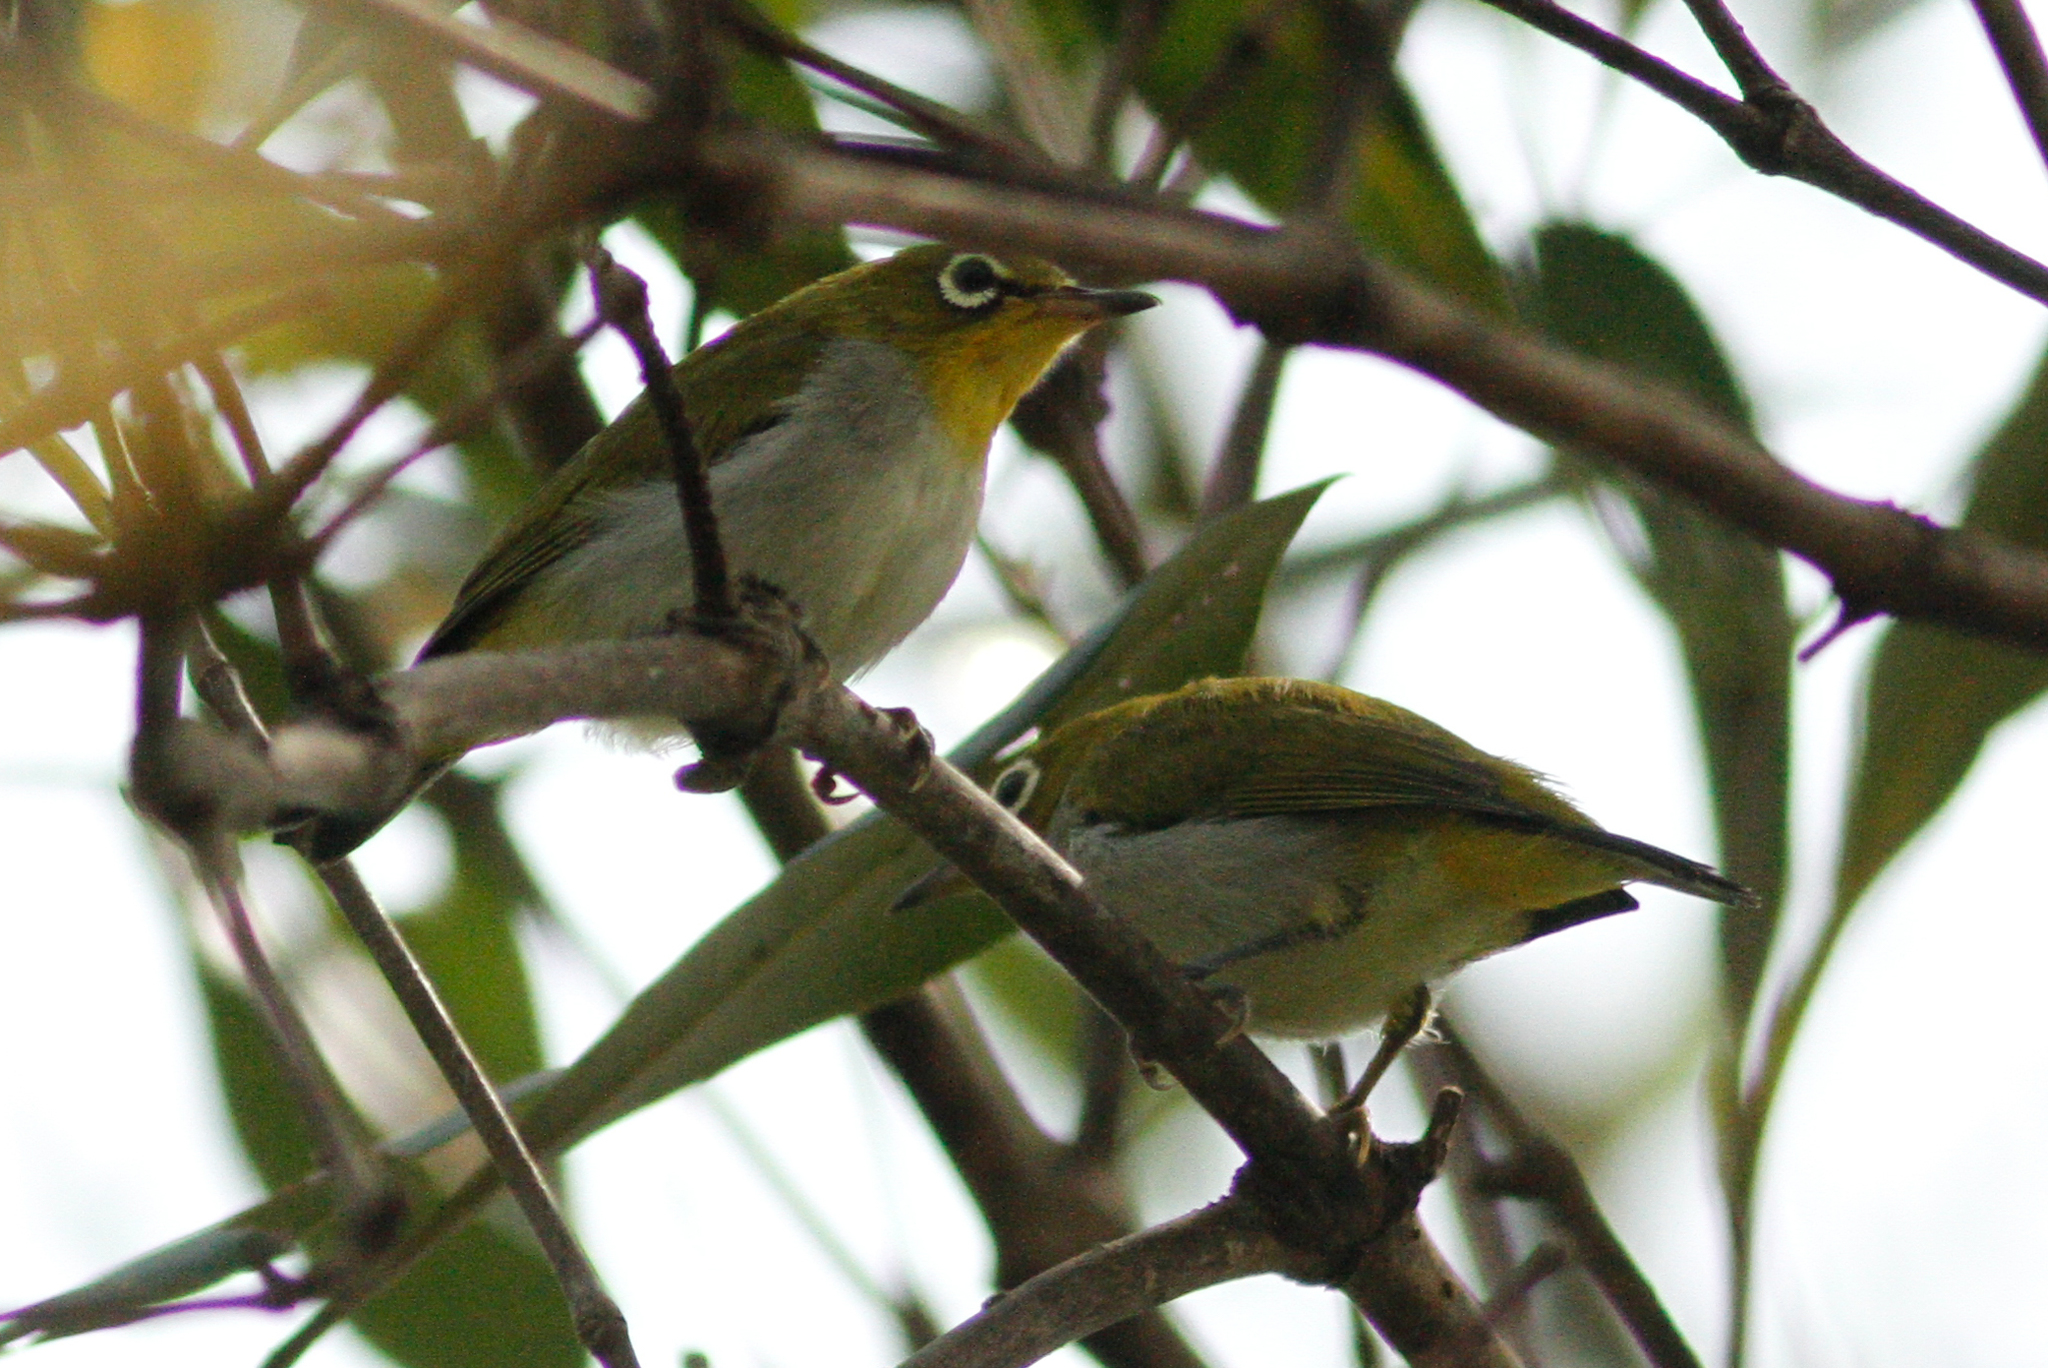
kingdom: Animalia
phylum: Chordata
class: Aves
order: Passeriformes
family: Zosteropidae
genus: Zosterops
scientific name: Zosterops simplex
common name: Swinhoe's white-eye
